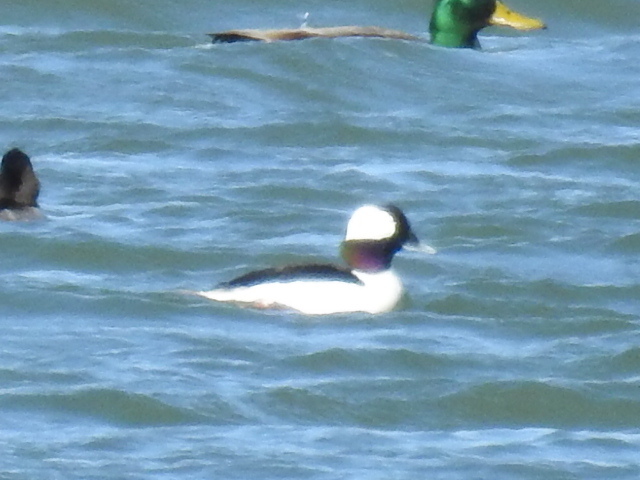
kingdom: Animalia
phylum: Chordata
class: Aves
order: Anseriformes
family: Anatidae
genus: Bucephala
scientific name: Bucephala albeola
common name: Bufflehead
